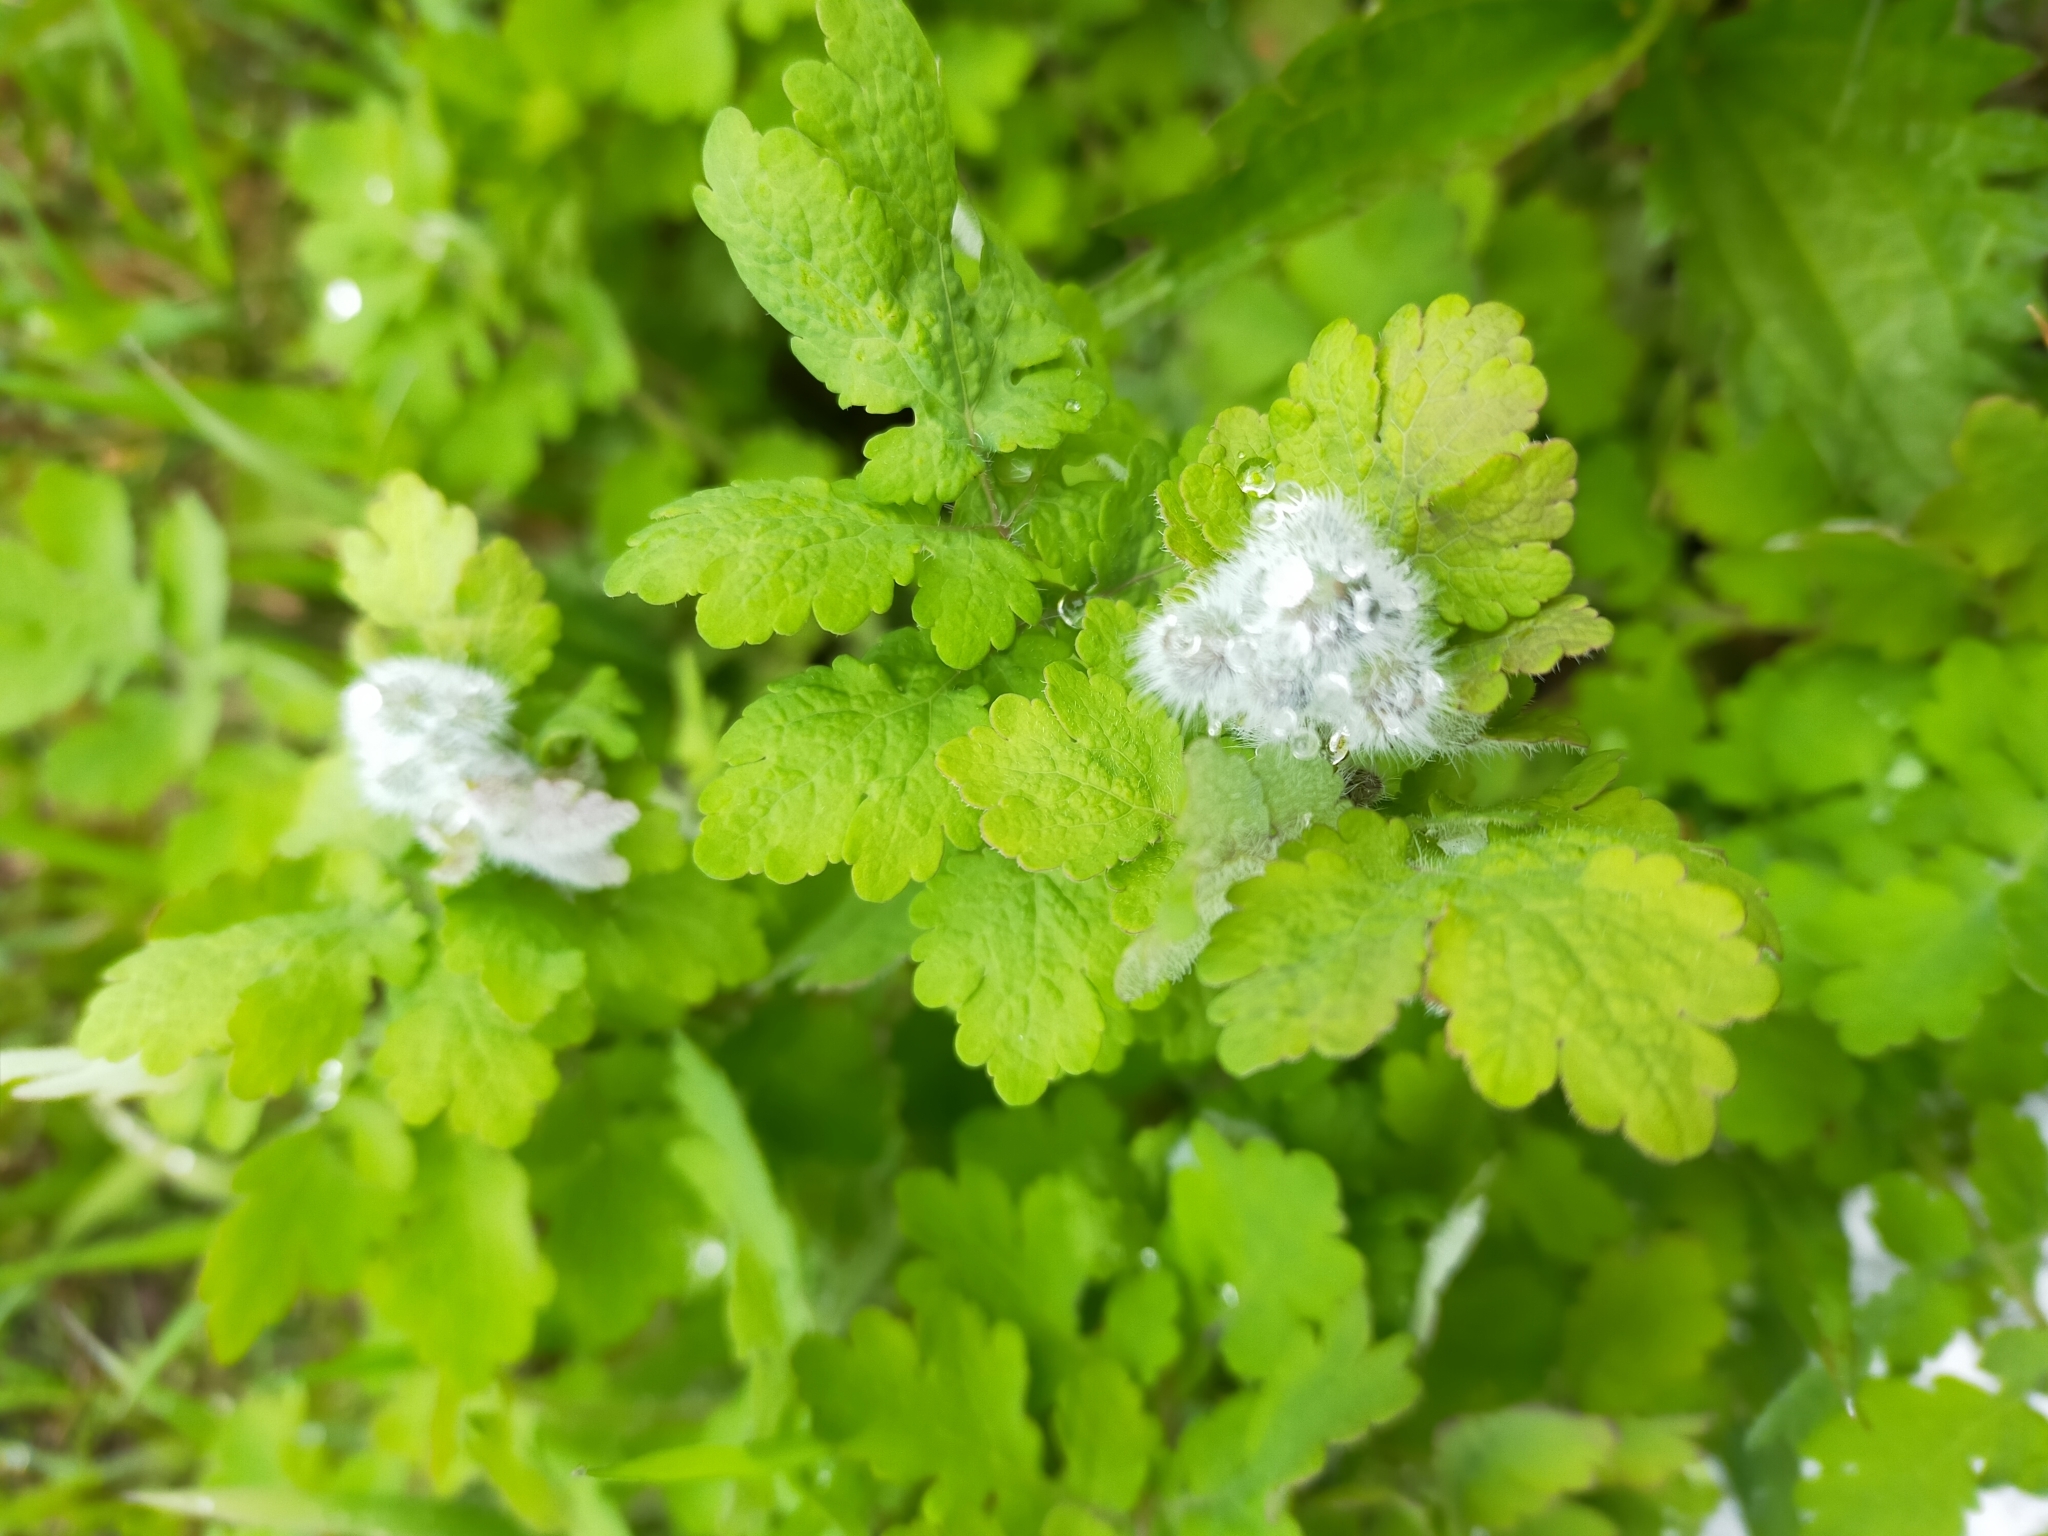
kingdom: Plantae
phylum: Tracheophyta
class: Magnoliopsida
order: Ranunculales
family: Papaveraceae
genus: Chelidonium
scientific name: Chelidonium majus
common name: Greater celandine
